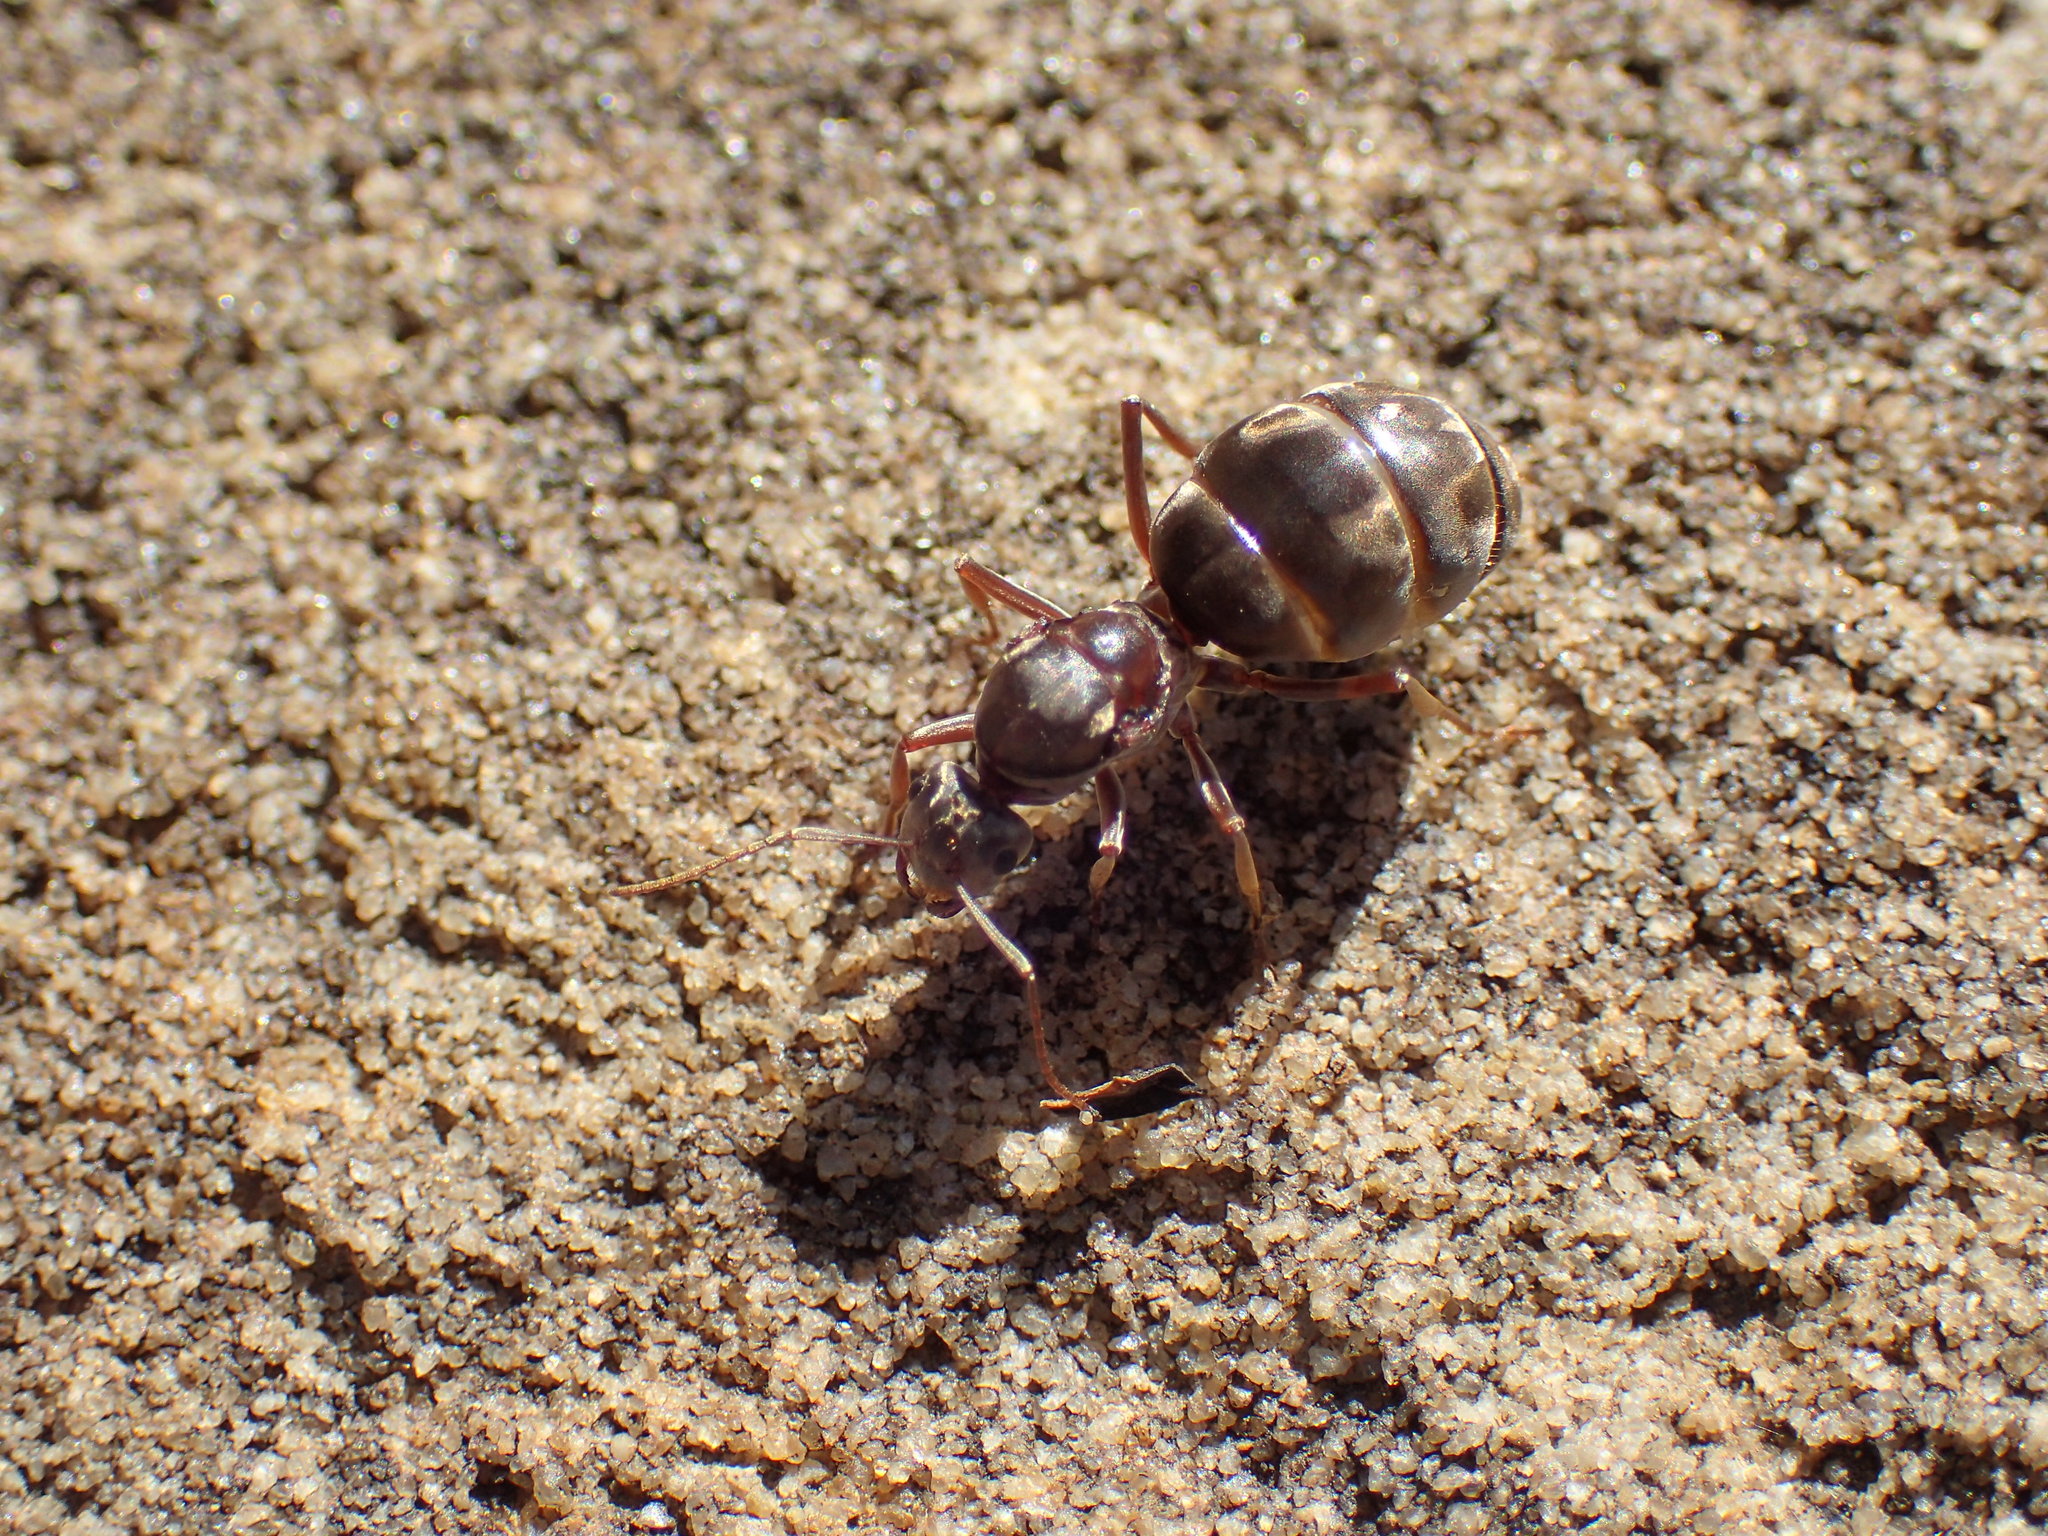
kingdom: Animalia
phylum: Arthropoda
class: Insecta
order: Hymenoptera
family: Formicidae
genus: Tapinoma
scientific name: Tapinoma pallipes
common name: Ant
